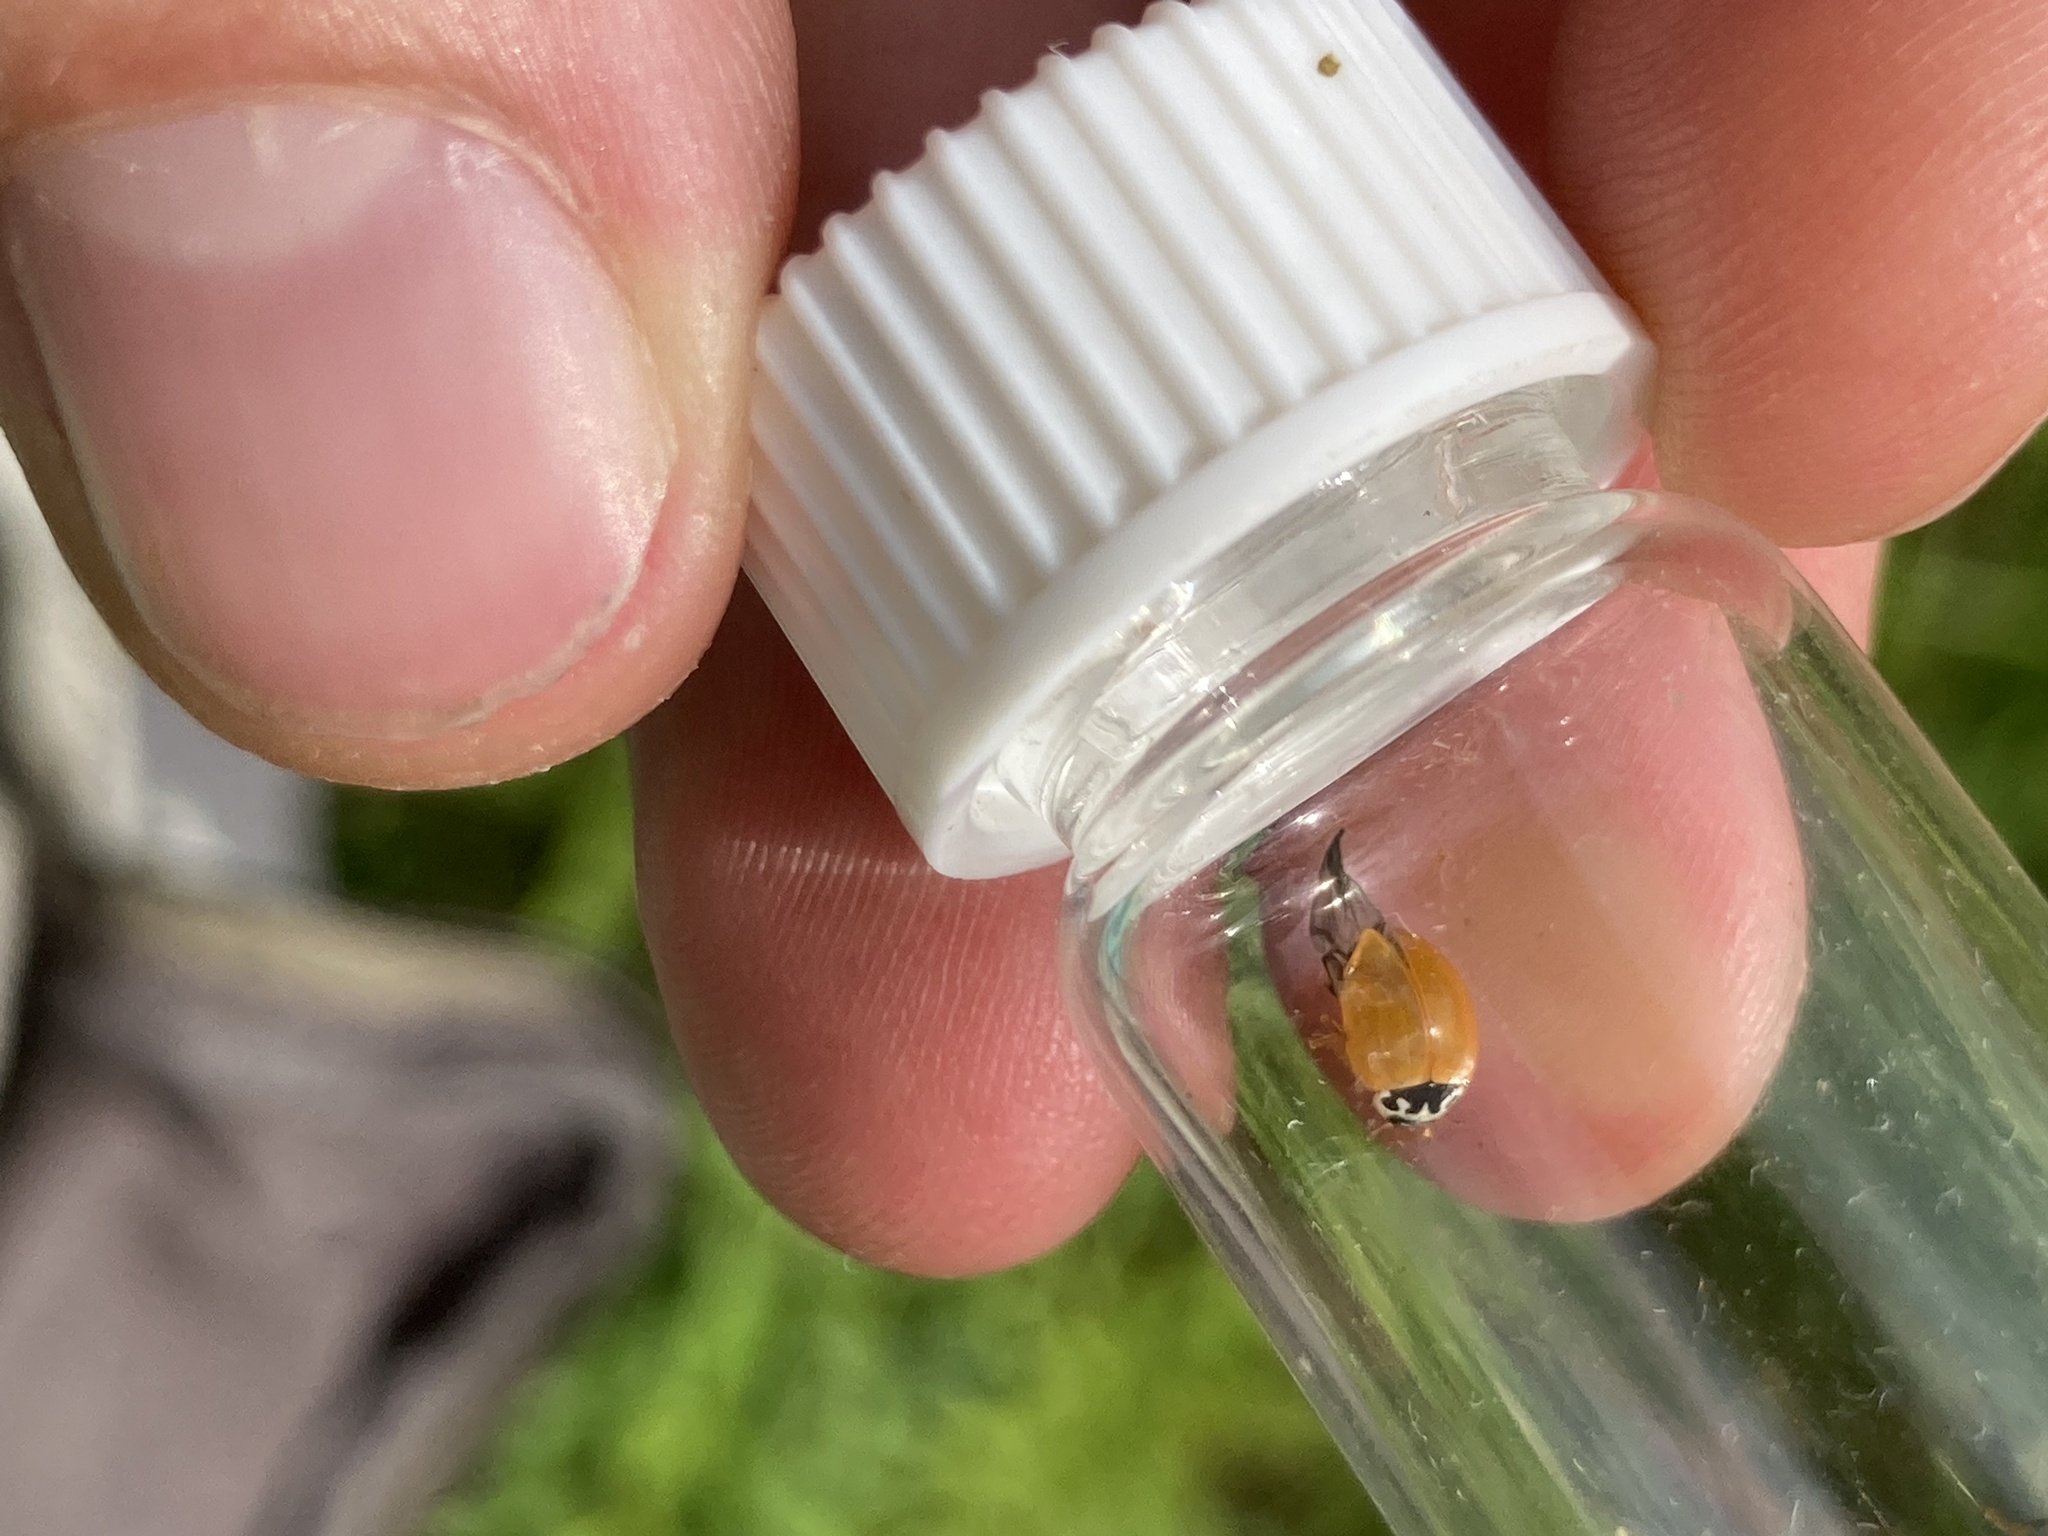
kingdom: Animalia
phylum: Arthropoda
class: Insecta
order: Coleoptera
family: Coccinellidae
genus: Cycloneda
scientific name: Cycloneda munda
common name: Polished lady beetle
